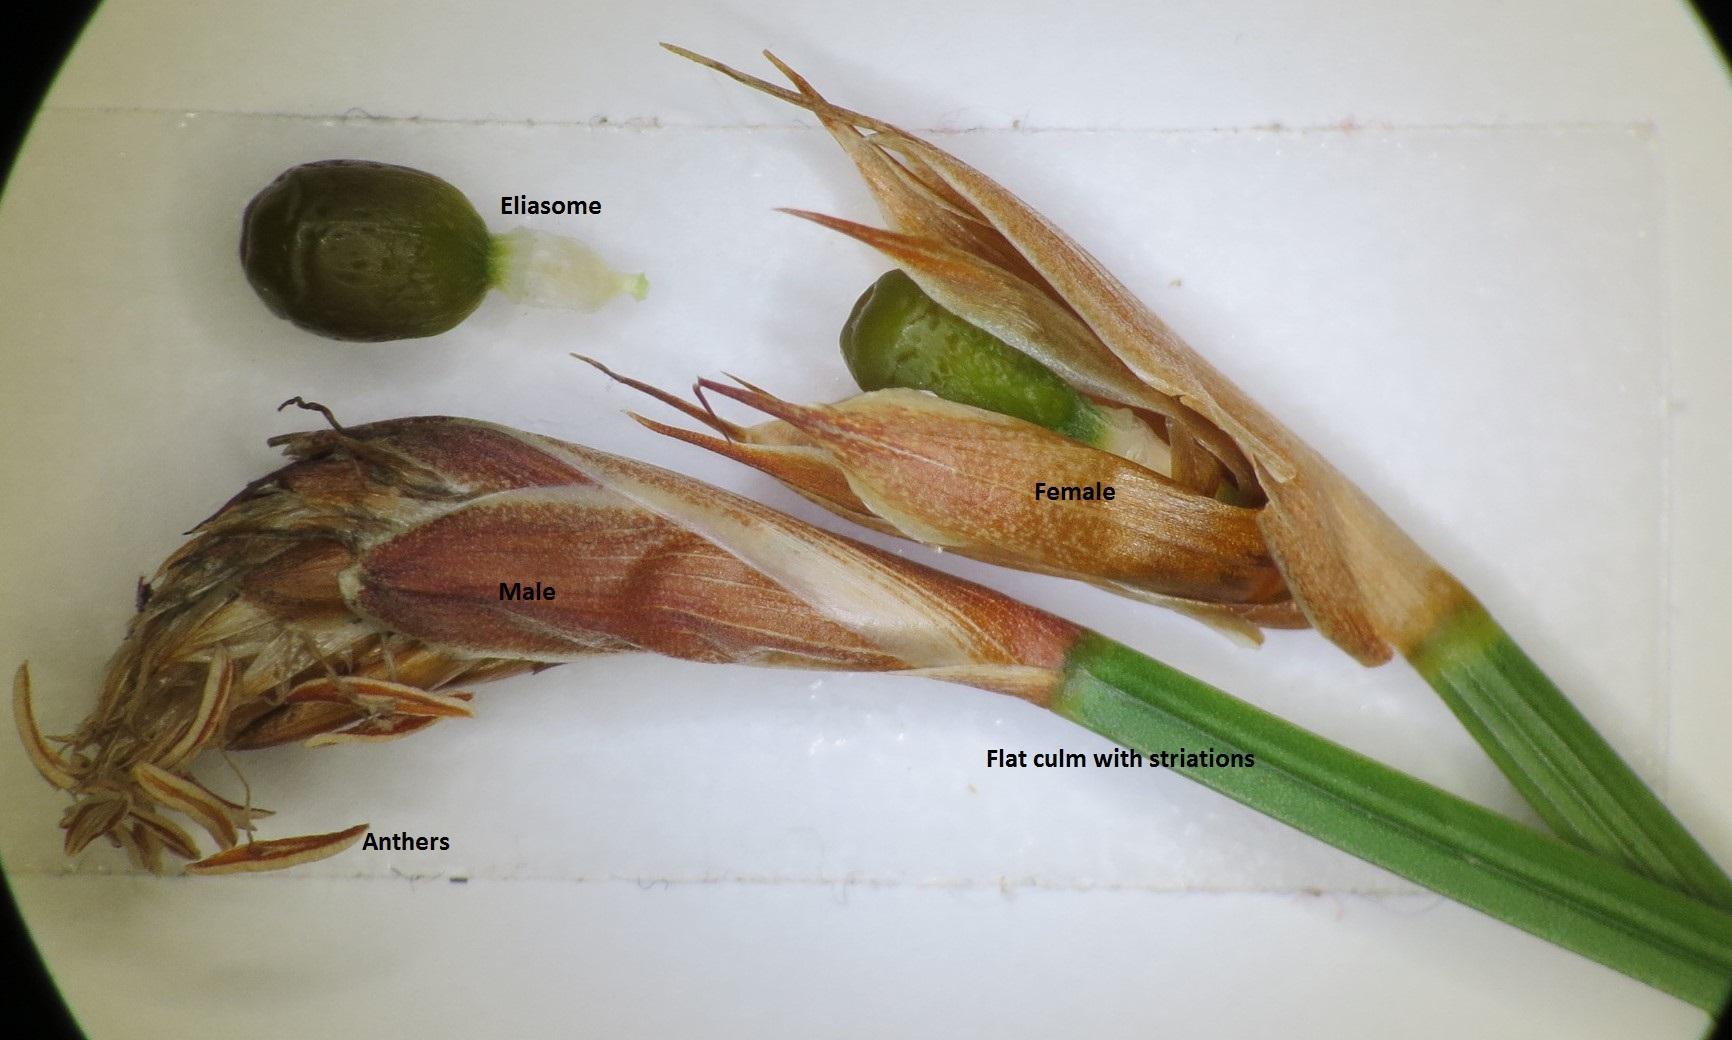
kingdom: Plantae
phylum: Tracheophyta
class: Liliopsida
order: Poales
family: Restionaceae
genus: Hypodiscus
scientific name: Hypodiscus willdenowia
